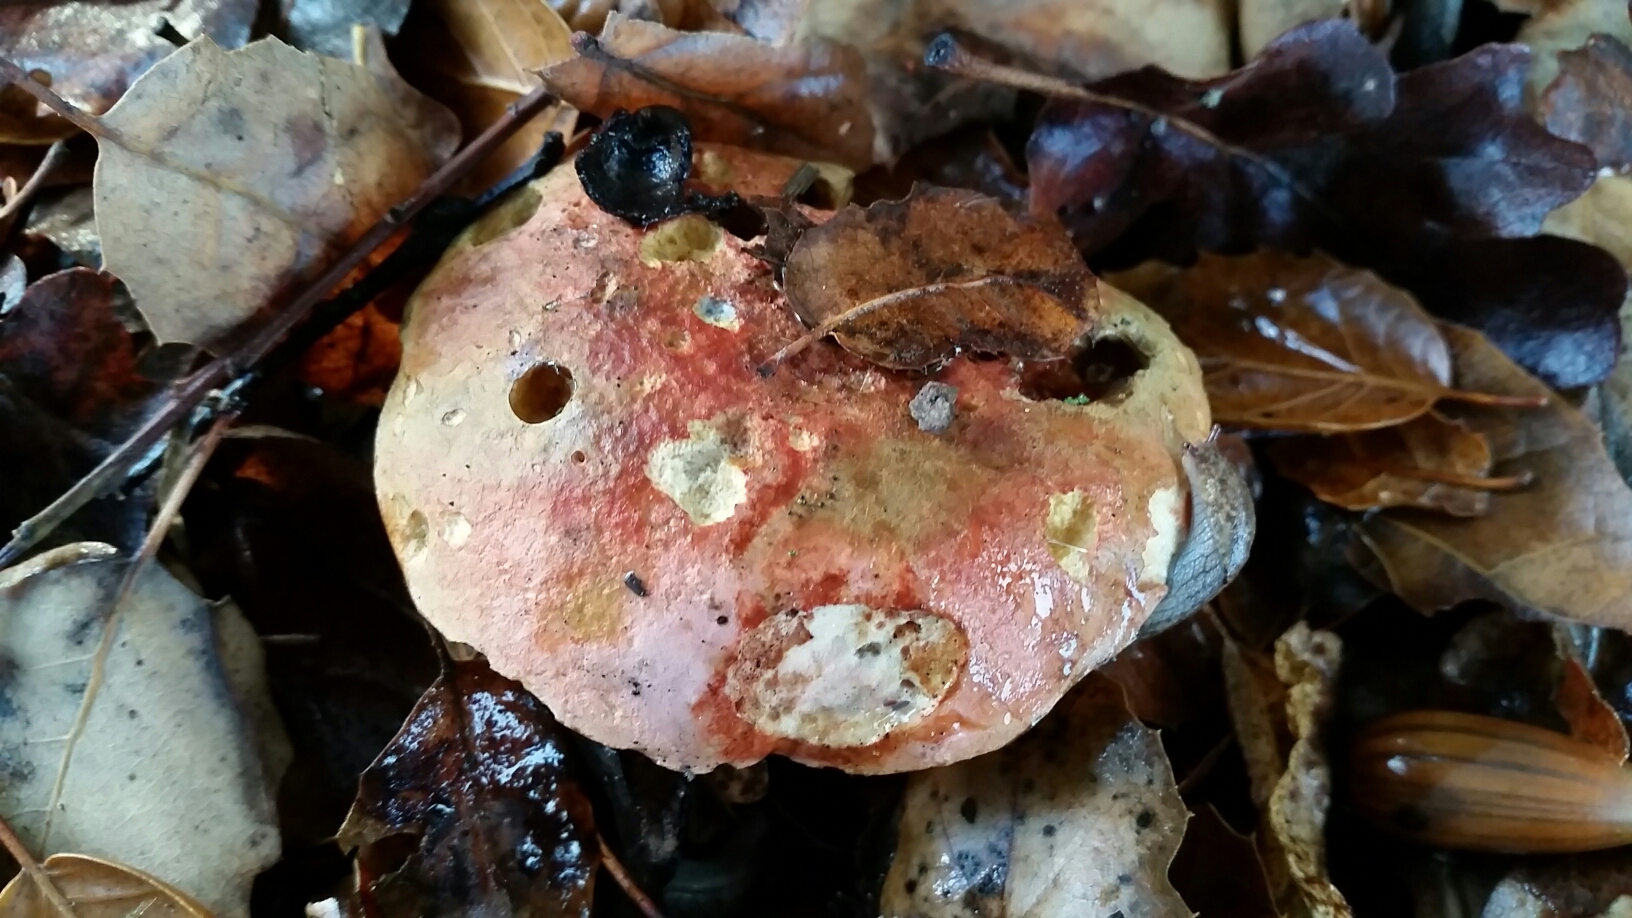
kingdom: Fungi
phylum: Basidiomycota
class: Agaricomycetes
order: Boletales
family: Boletaceae
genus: Suillellus
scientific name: Suillellus amygdalinus
